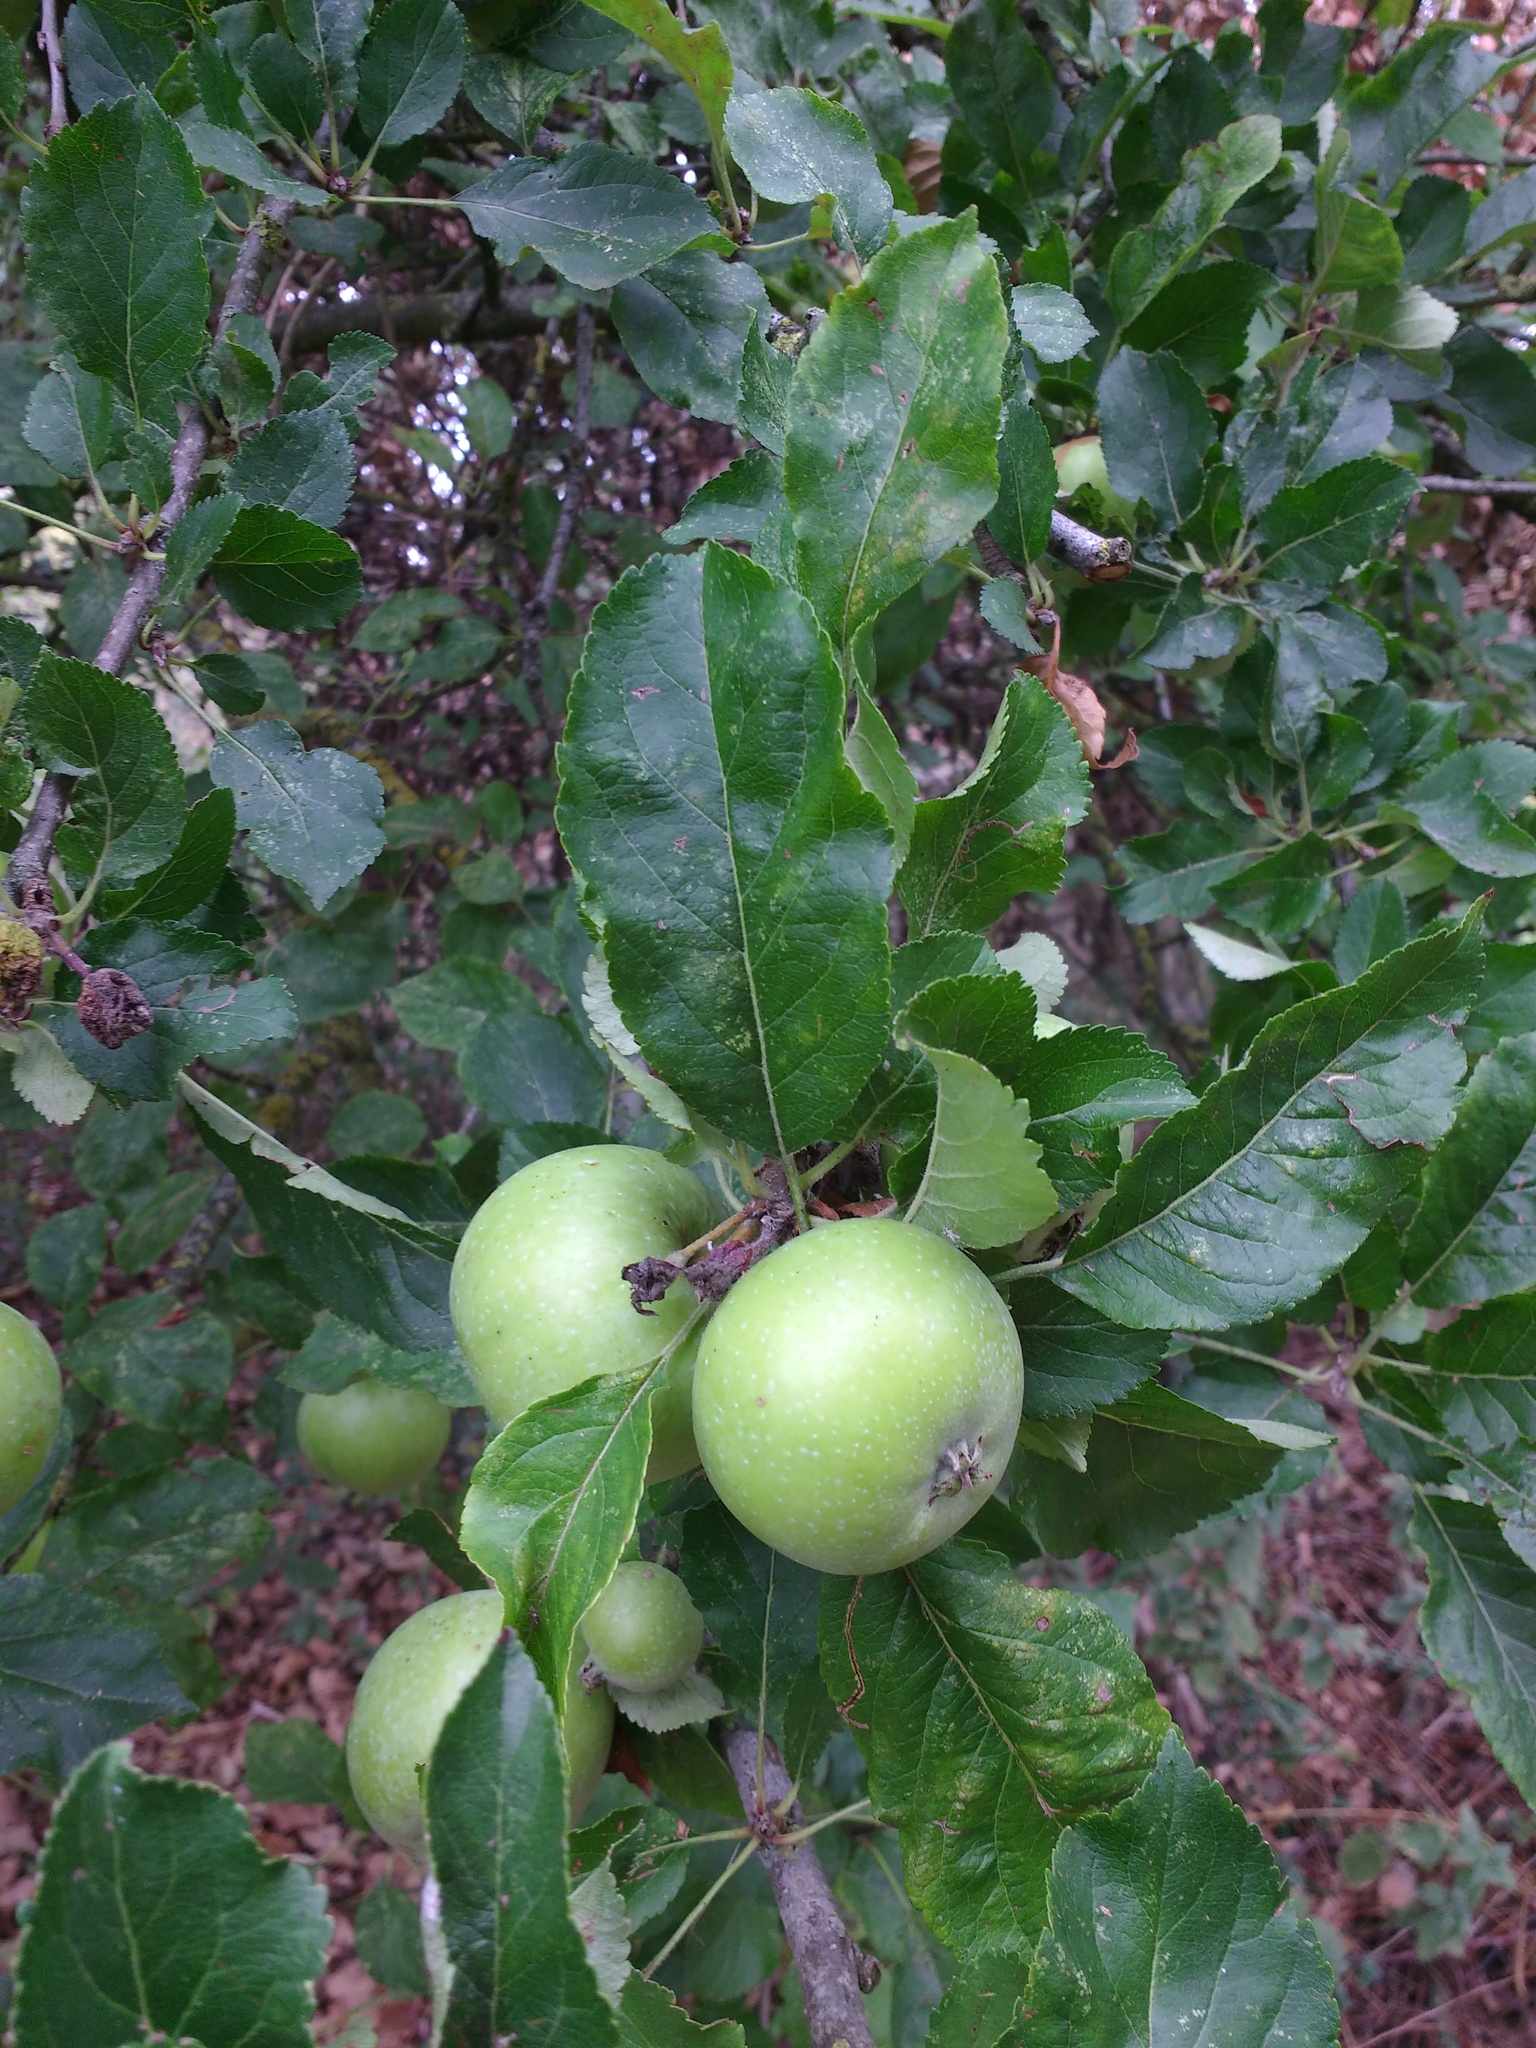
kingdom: Plantae
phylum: Tracheophyta
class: Magnoliopsida
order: Rosales
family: Rosaceae
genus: Malus
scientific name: Malus domestica
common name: Apple
